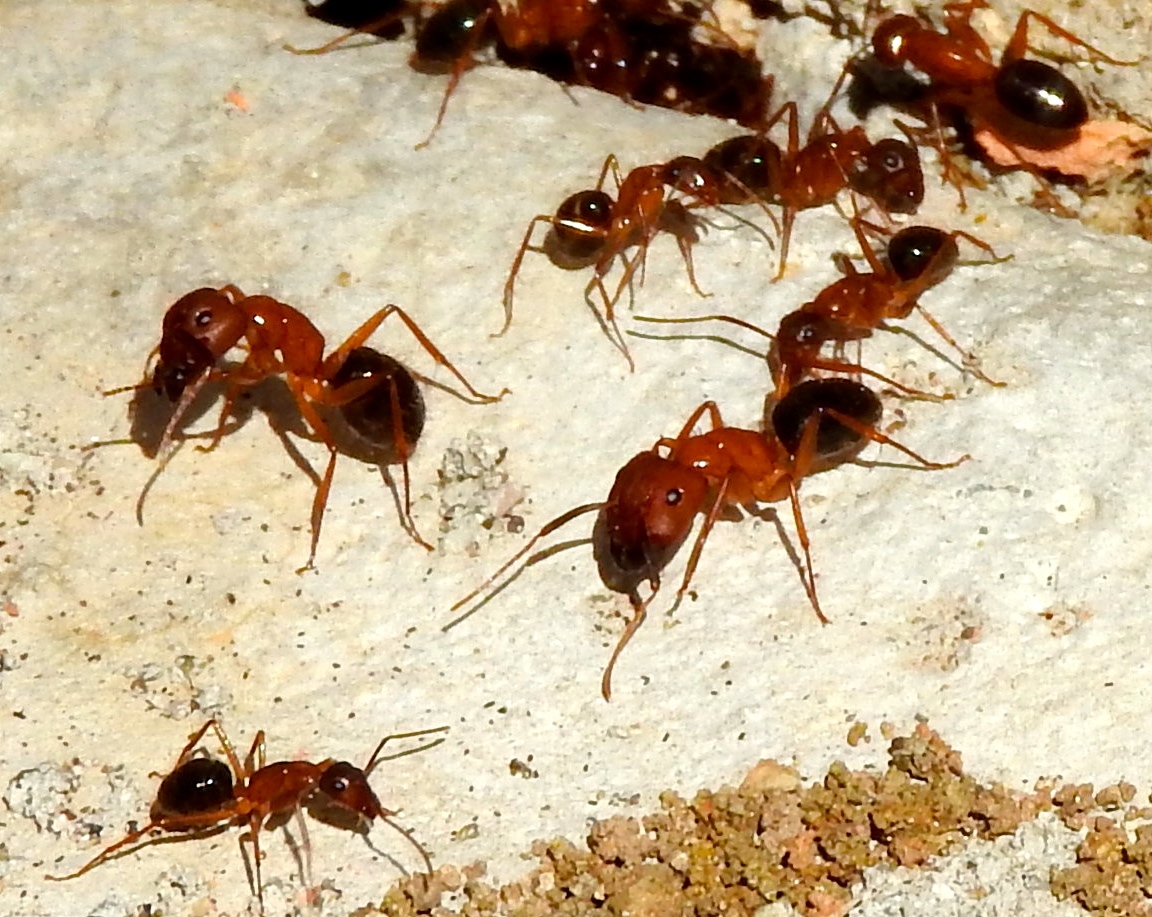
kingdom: Animalia
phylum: Arthropoda
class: Insecta
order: Hymenoptera
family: Formicidae
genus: Camponotus
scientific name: Camponotus
